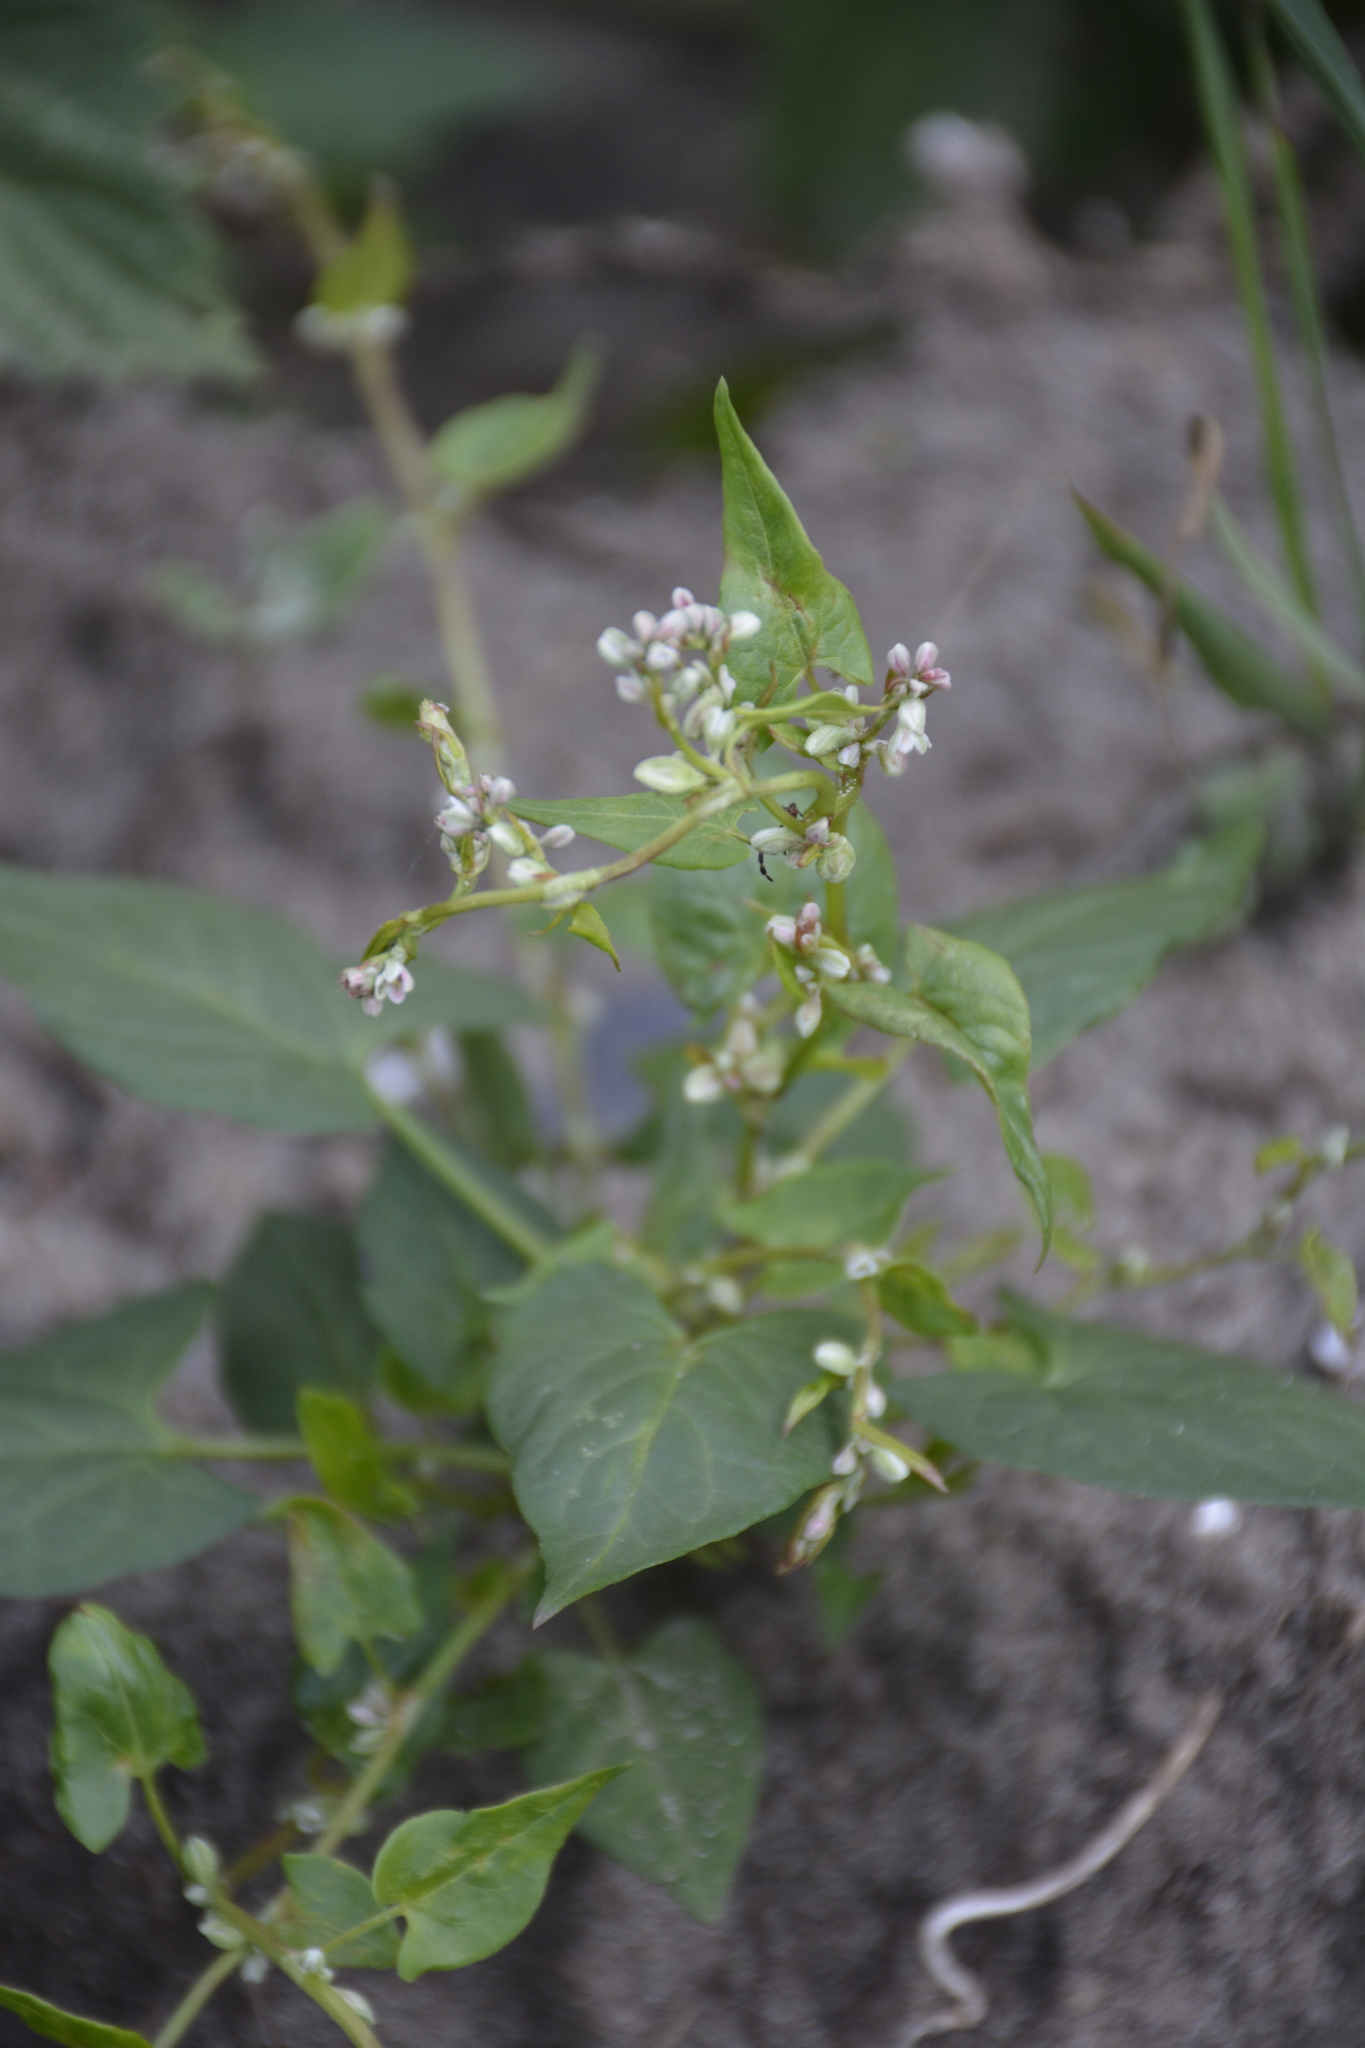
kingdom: Plantae
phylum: Tracheophyta
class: Magnoliopsida
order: Caryophyllales
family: Polygonaceae
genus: Fallopia
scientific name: Fallopia convolvulus
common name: Black bindweed
